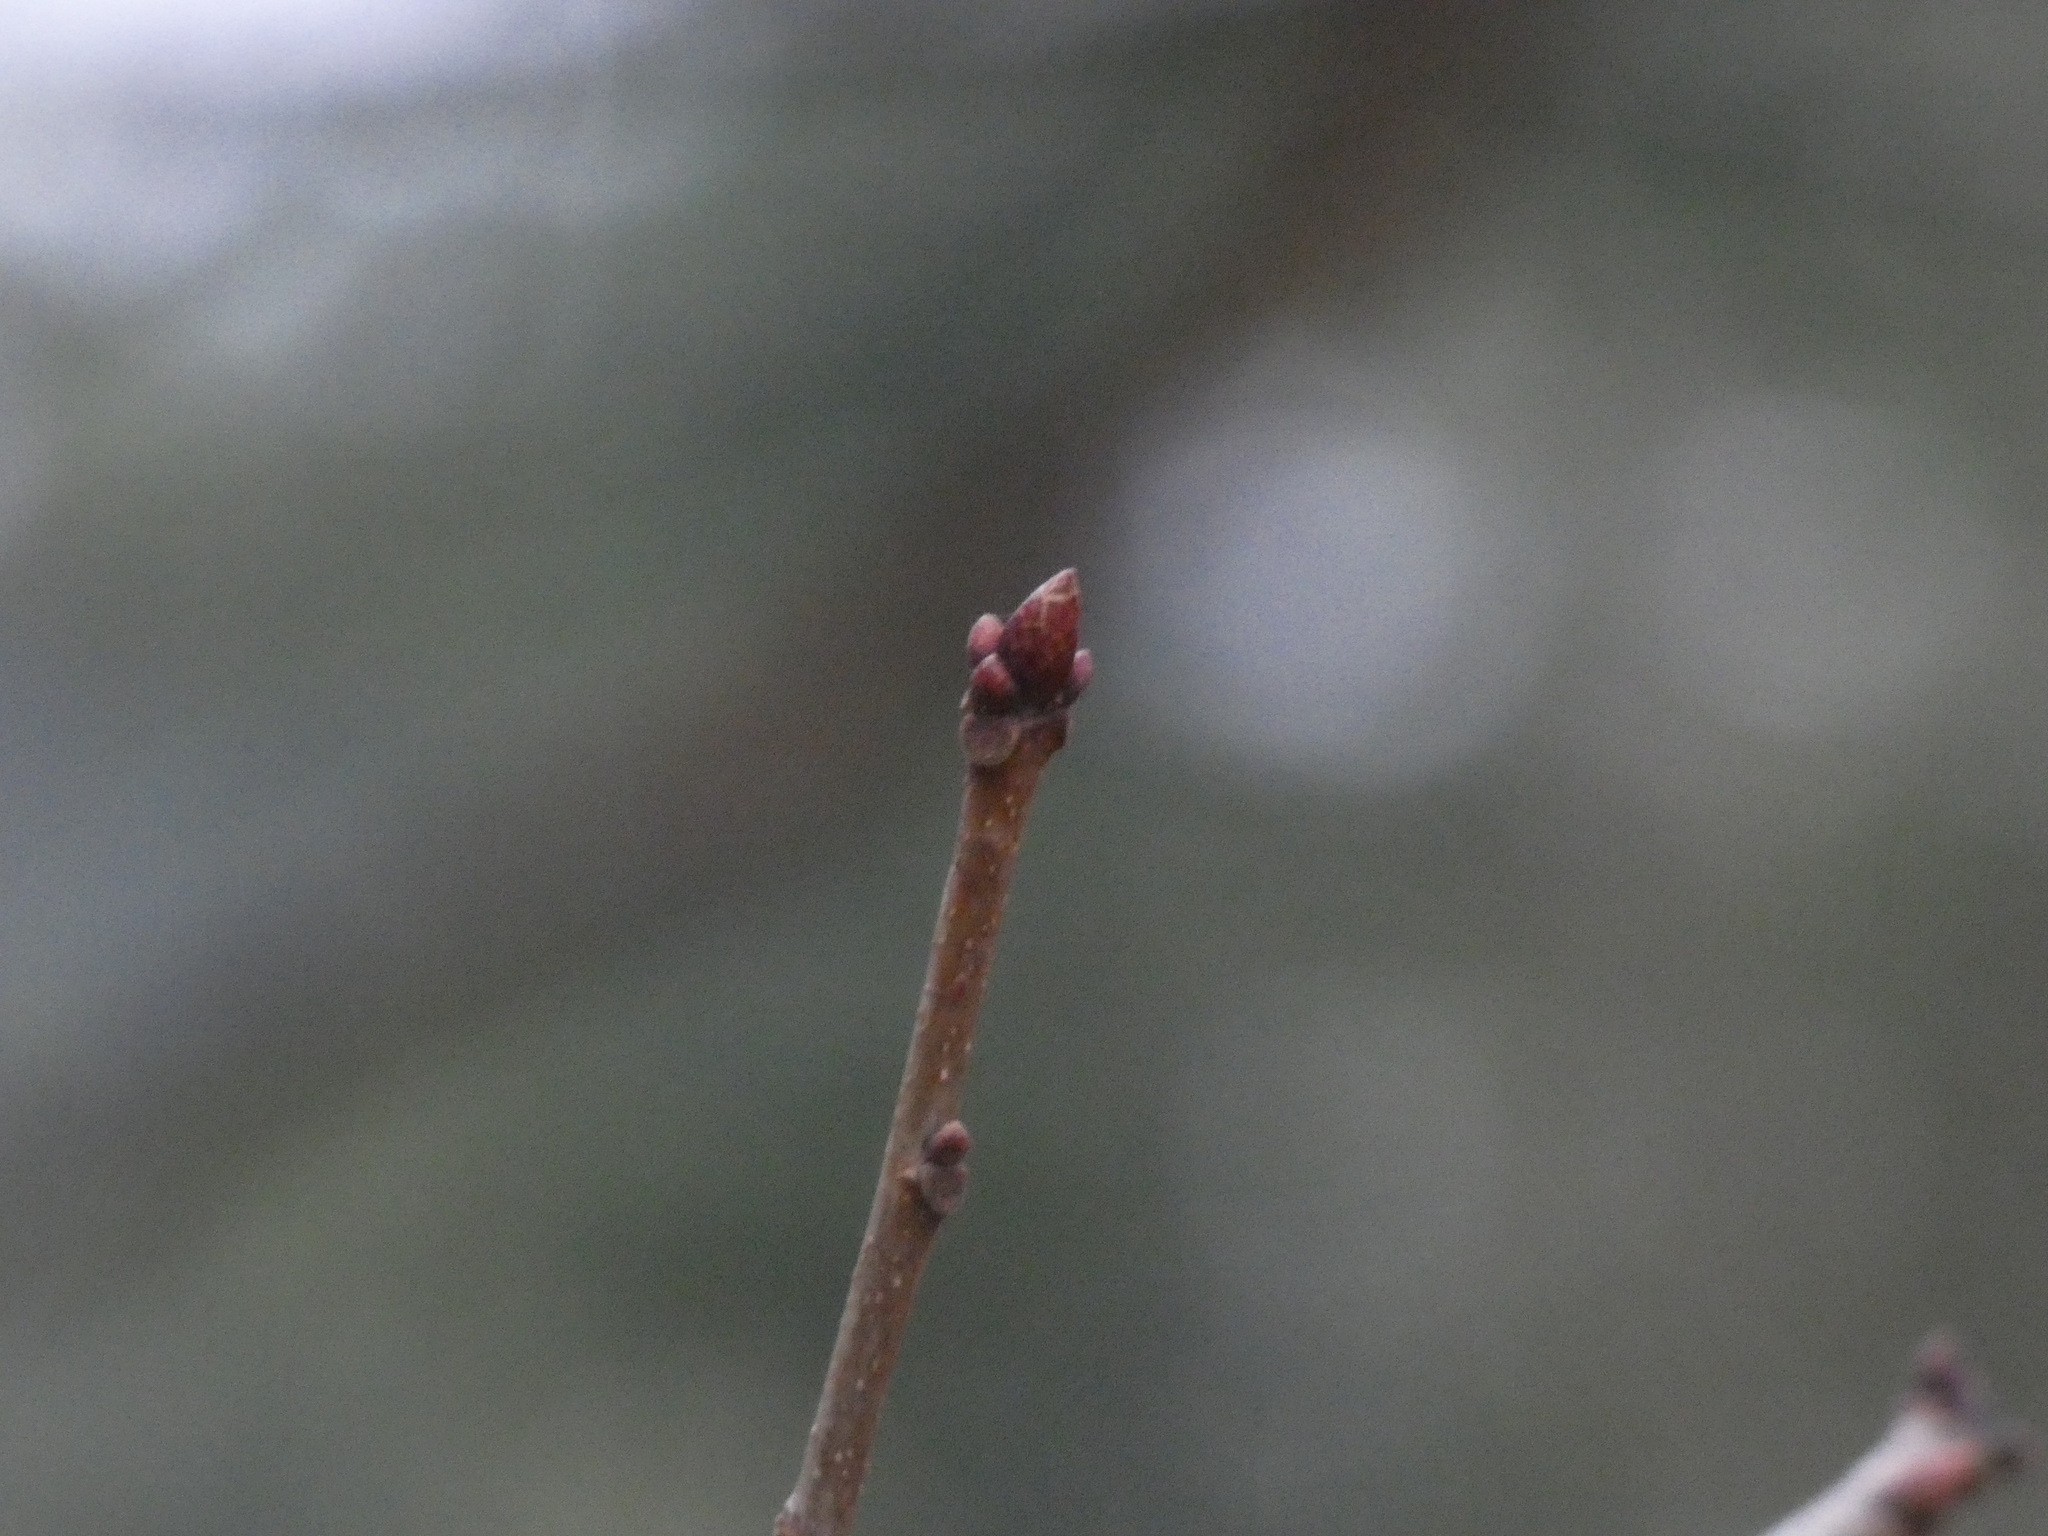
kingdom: Plantae
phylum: Tracheophyta
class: Magnoliopsida
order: Fagales
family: Fagaceae
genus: Quercus
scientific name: Quercus rubra
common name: Red oak
